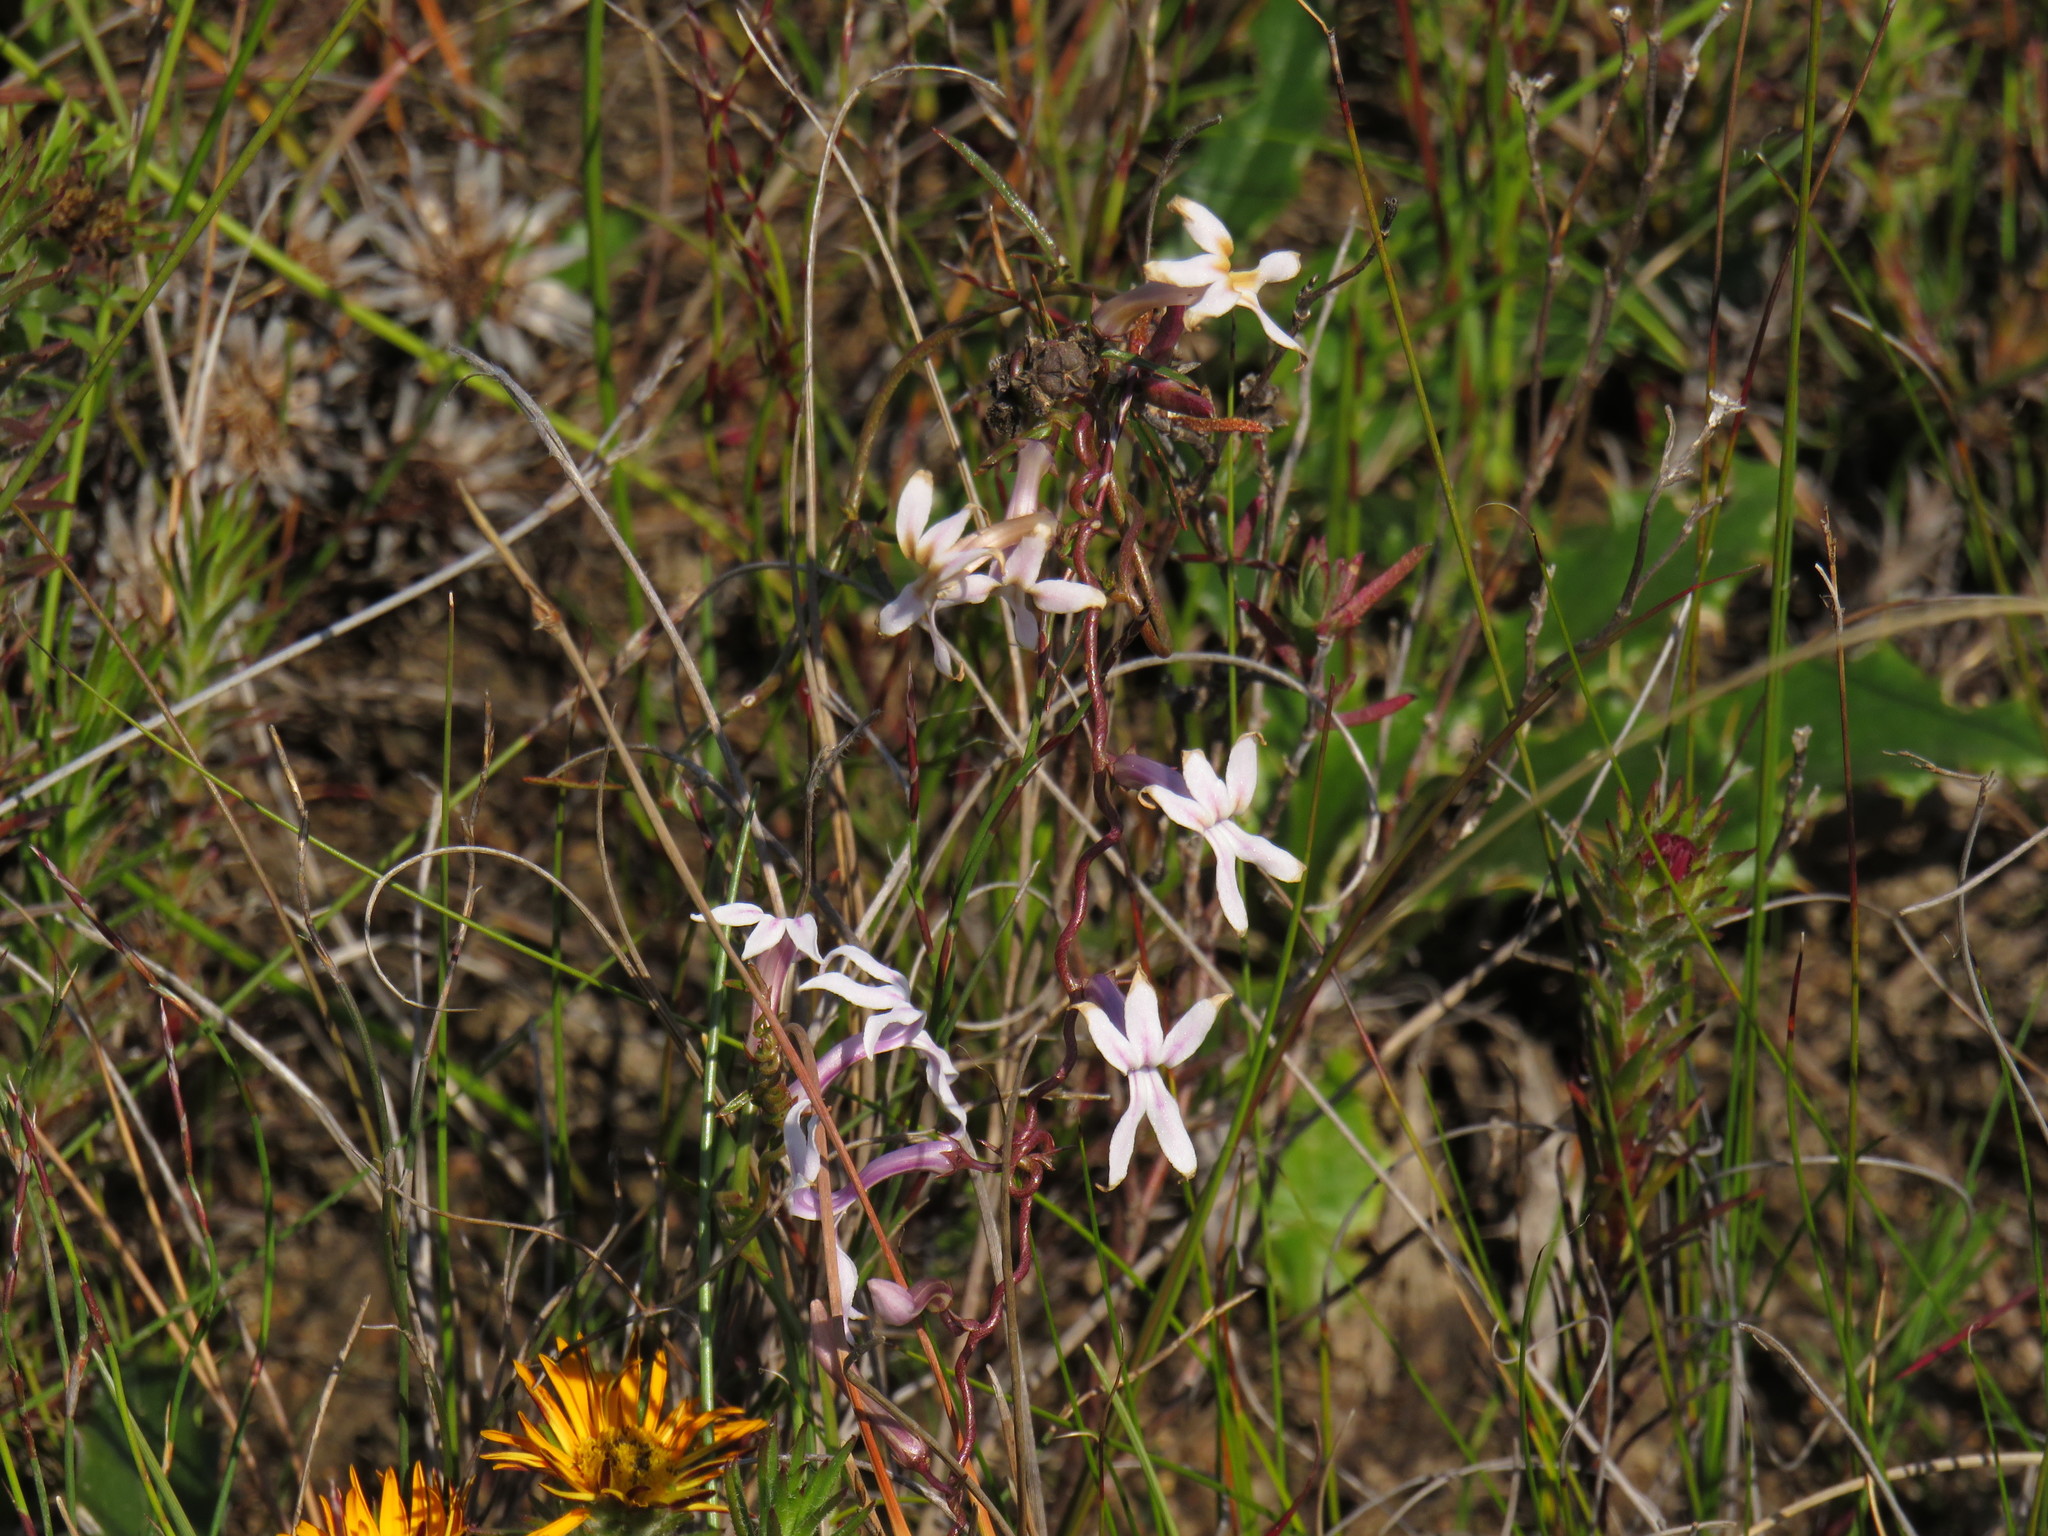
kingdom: Plantae
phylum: Tracheophyta
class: Magnoliopsida
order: Asterales
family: Campanulaceae
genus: Cyphia
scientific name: Cyphia volubilis
